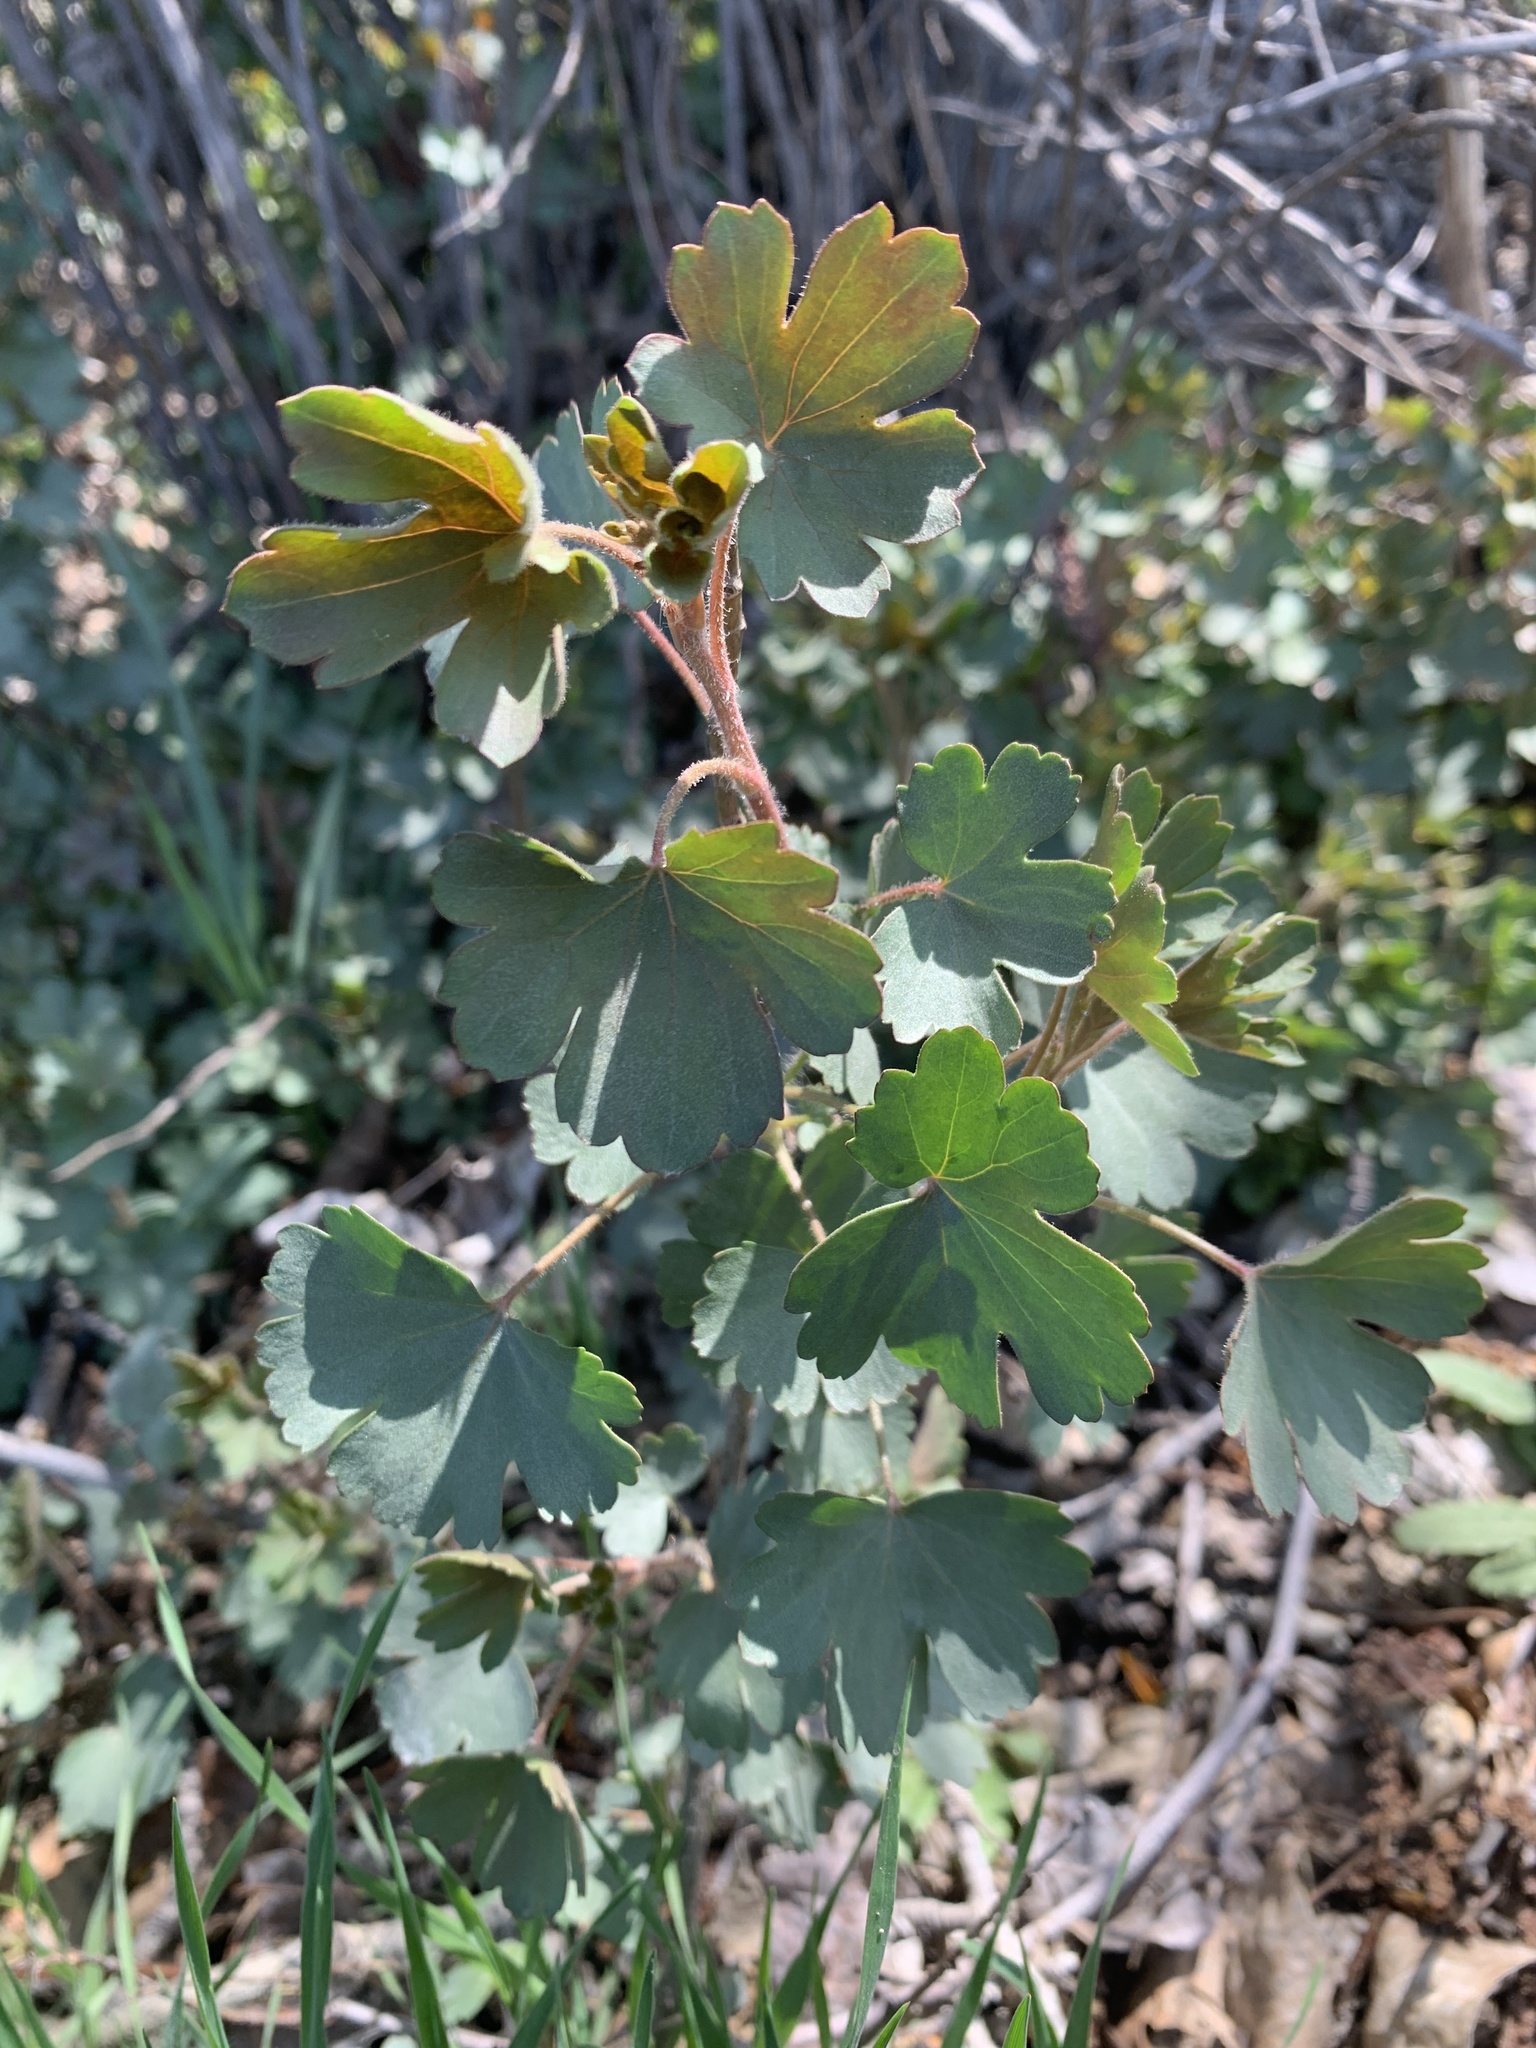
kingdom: Plantae
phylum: Tracheophyta
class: Magnoliopsida
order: Saxifragales
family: Grossulariaceae
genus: Ribes
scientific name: Ribes aureum
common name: Golden currant
